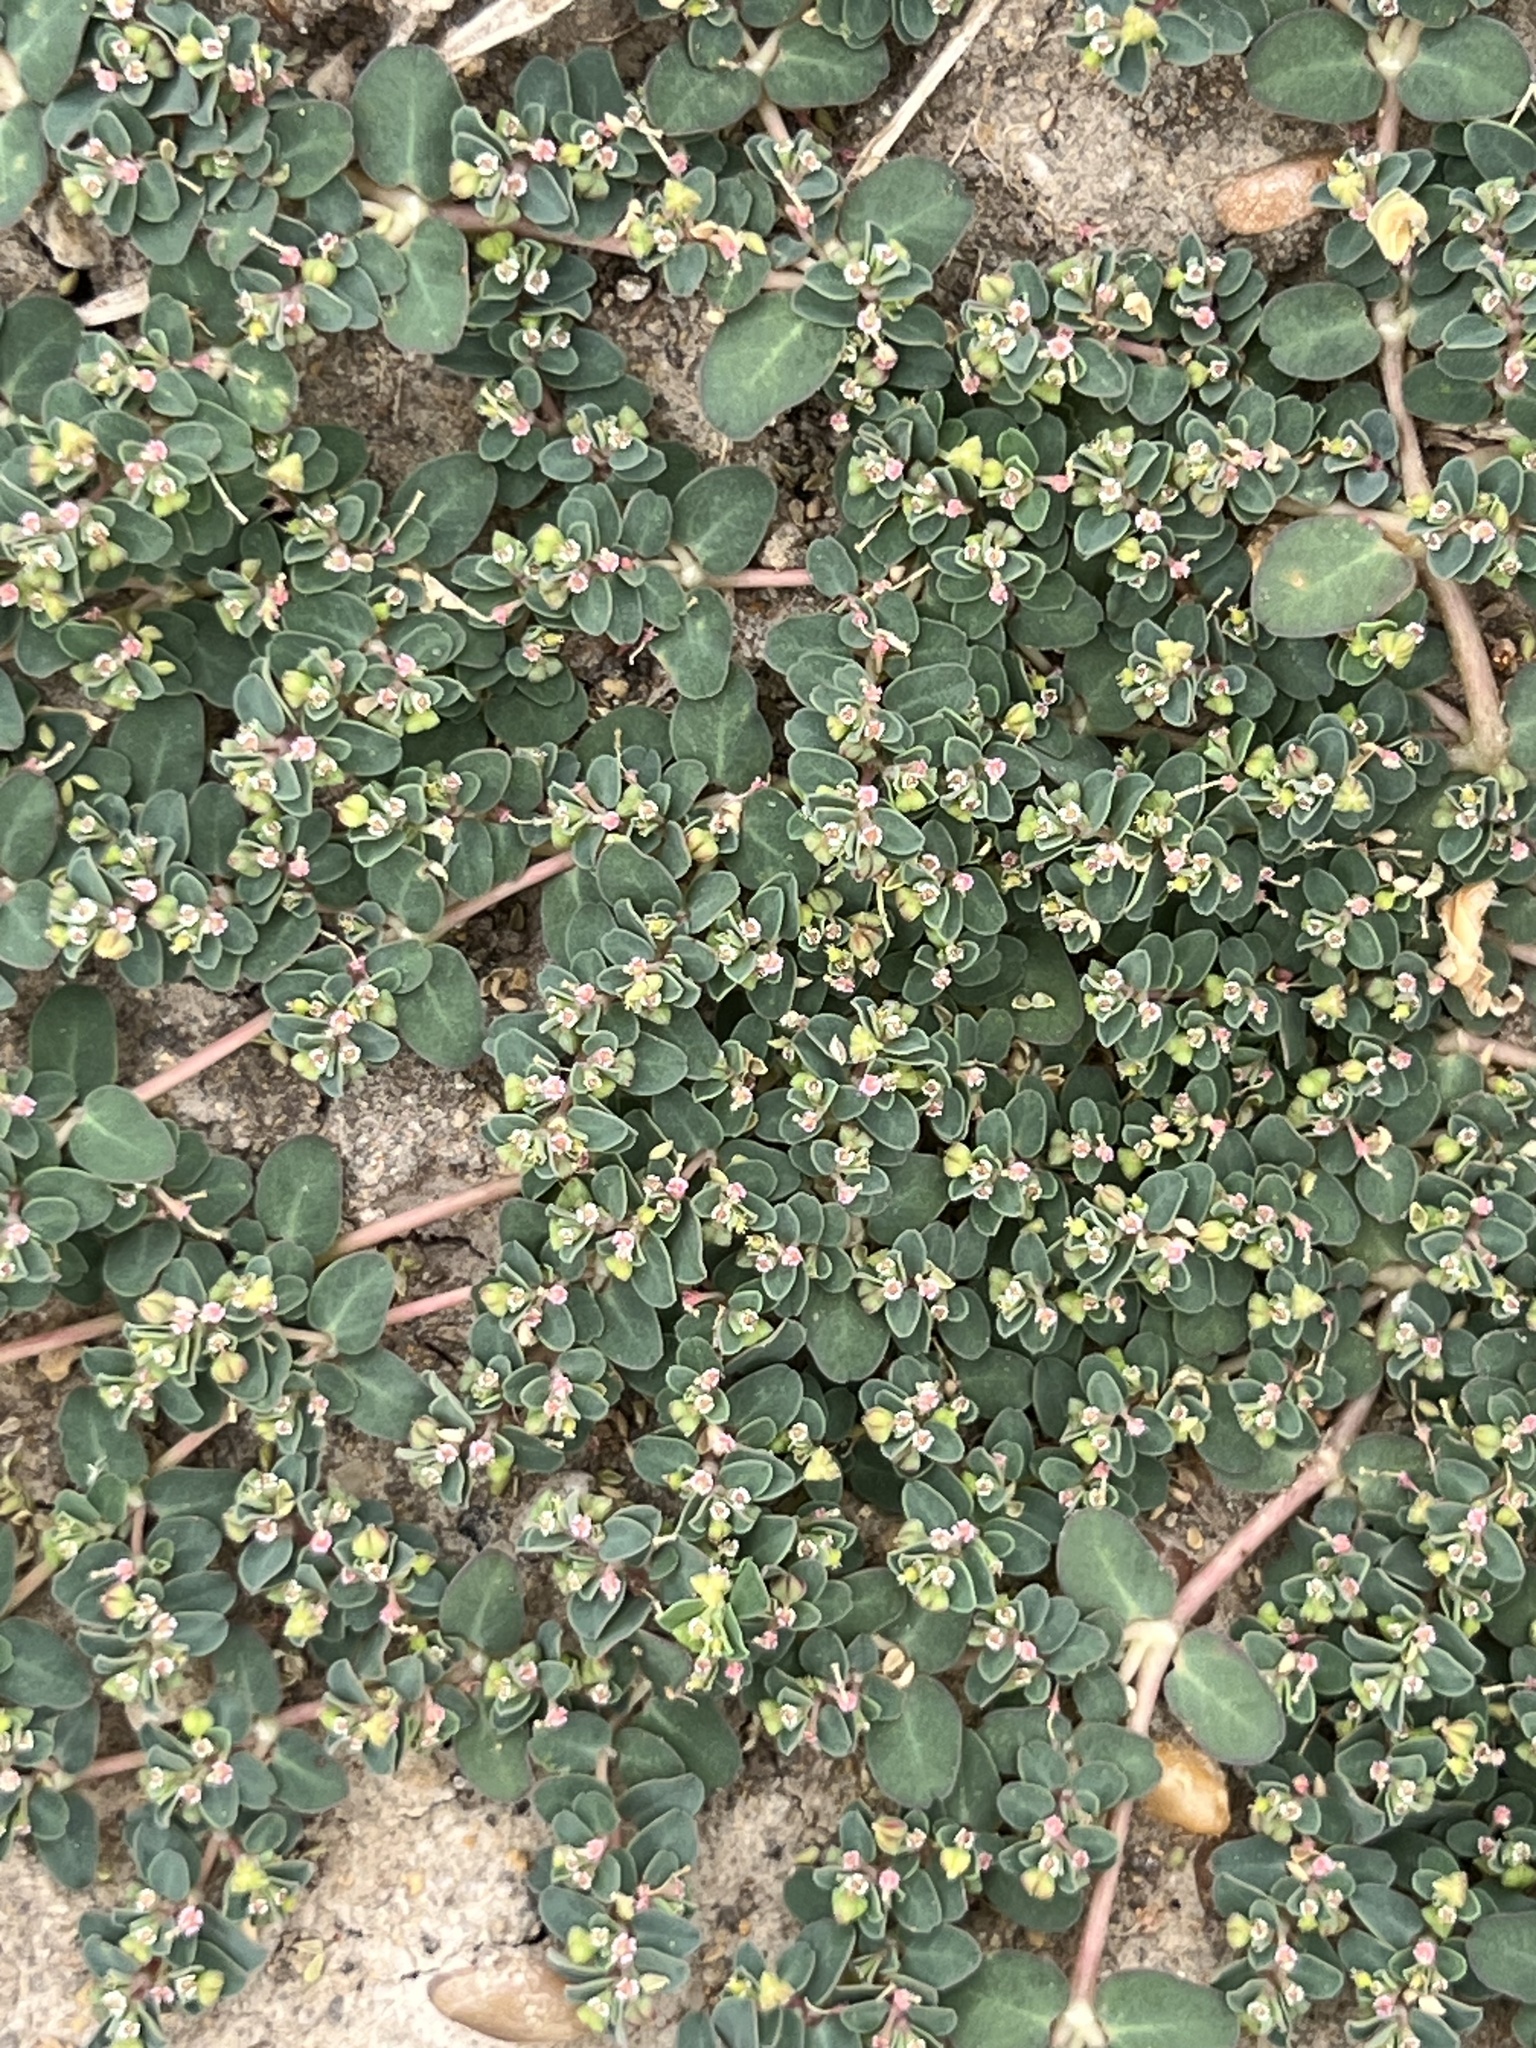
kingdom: Plantae
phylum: Tracheophyta
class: Magnoliopsida
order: Malpighiales
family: Euphorbiaceae
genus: Euphorbia
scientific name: Euphorbia serpens
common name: Matted sandmat
